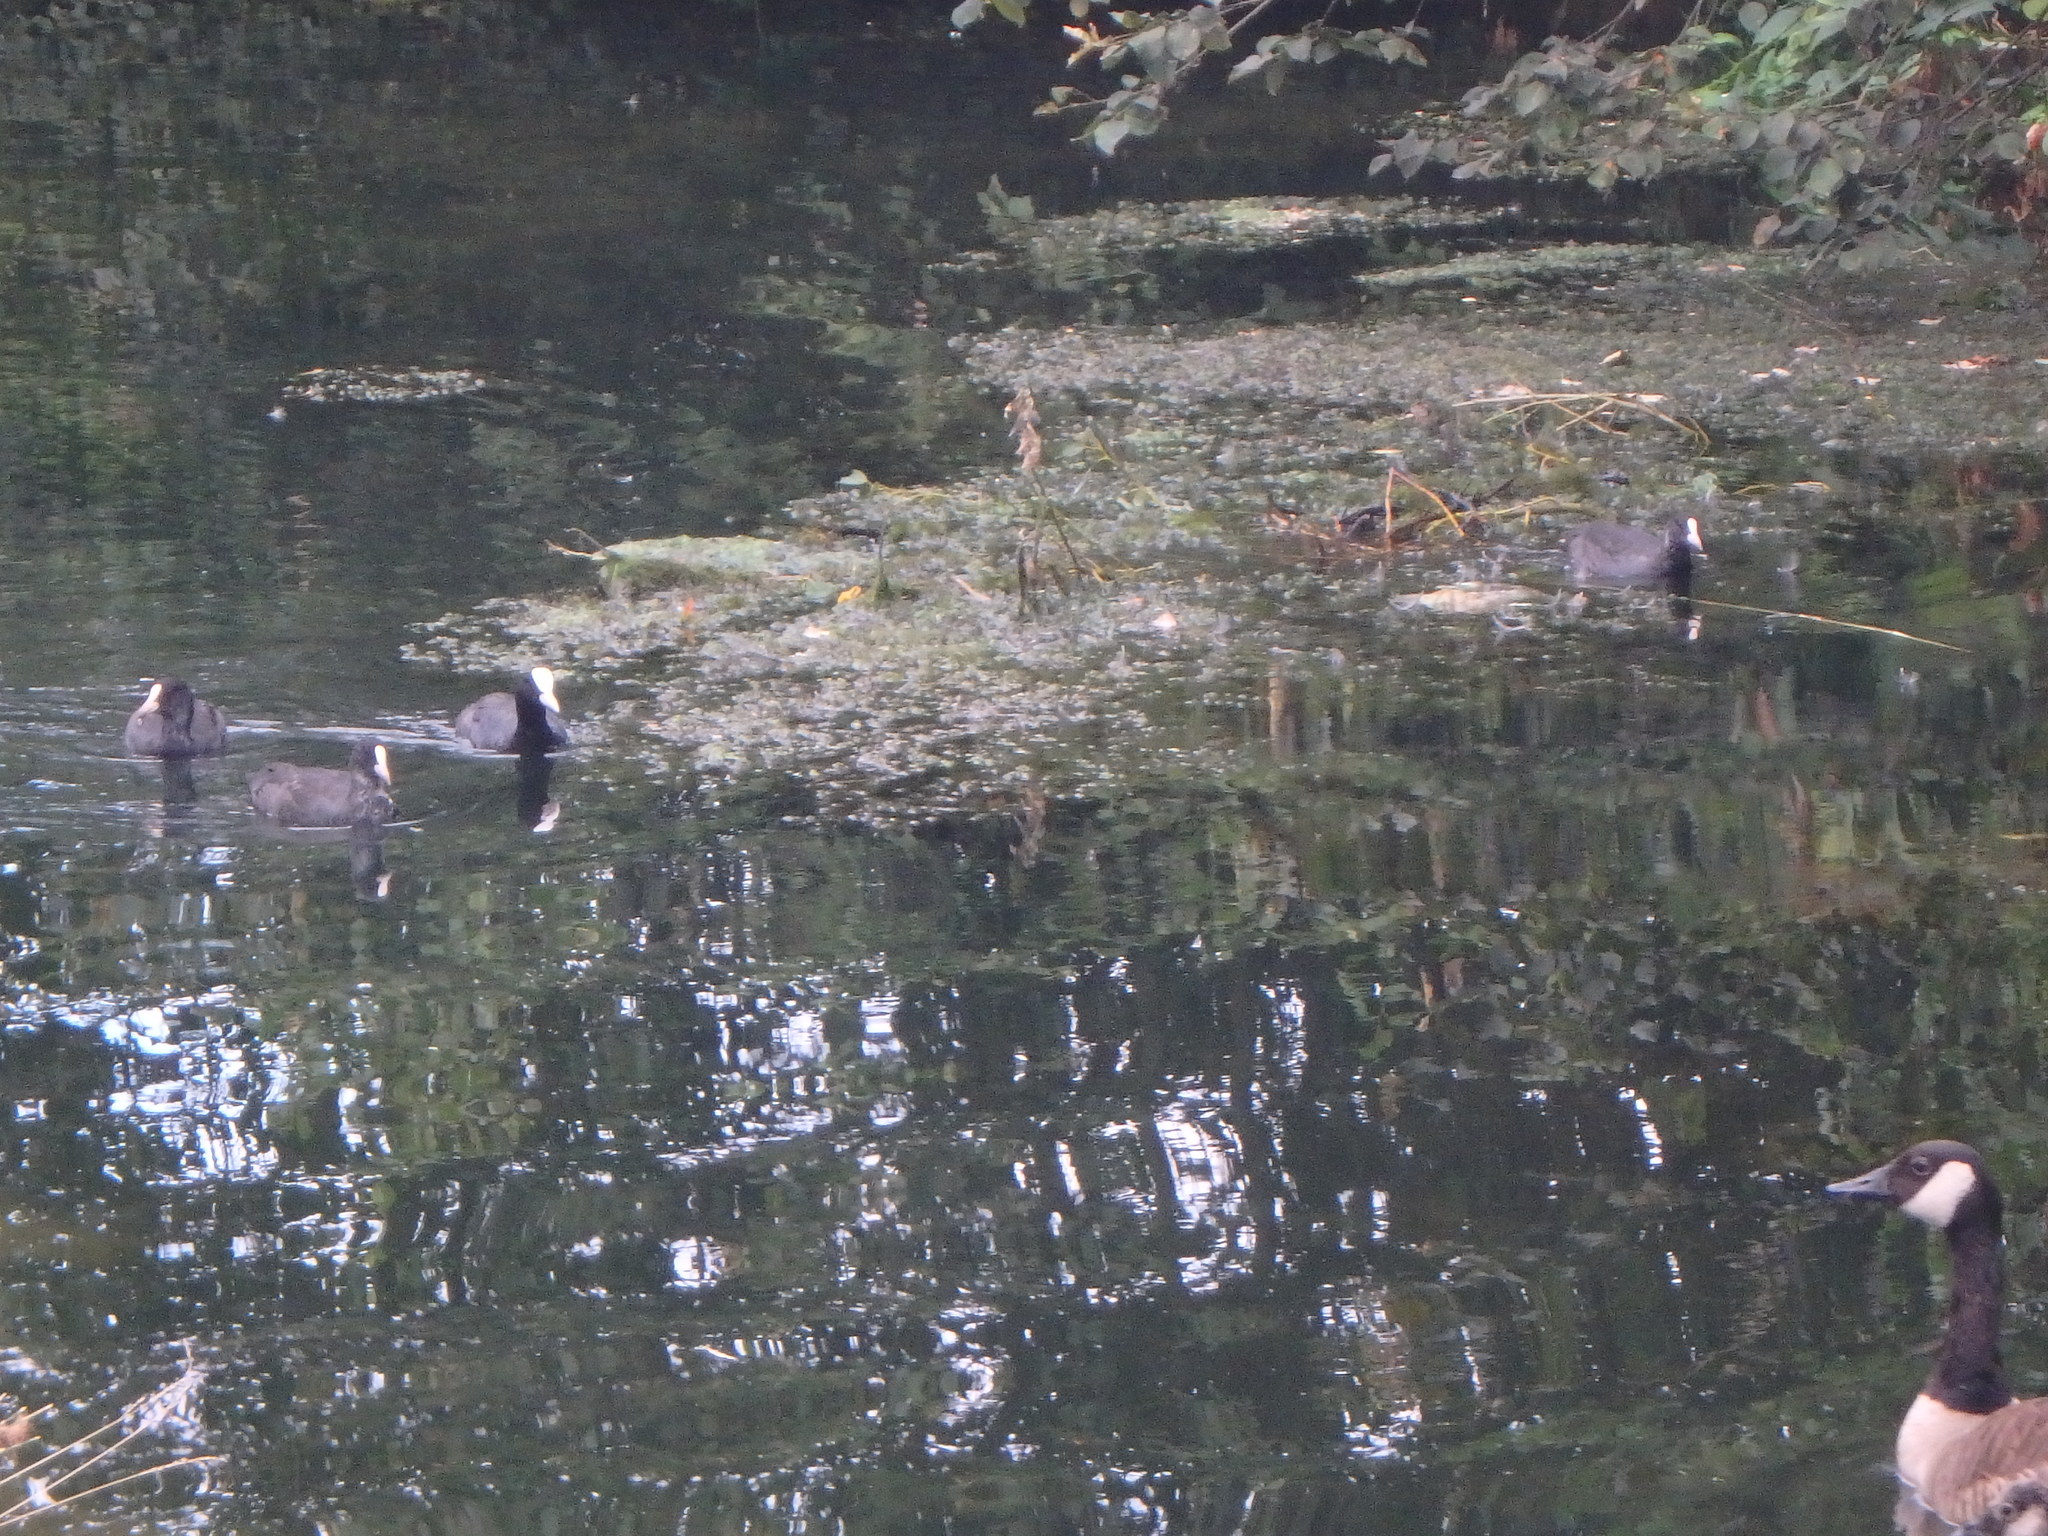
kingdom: Animalia
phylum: Chordata
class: Aves
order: Gruiformes
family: Rallidae
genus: Fulica
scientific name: Fulica atra
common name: Eurasian coot
